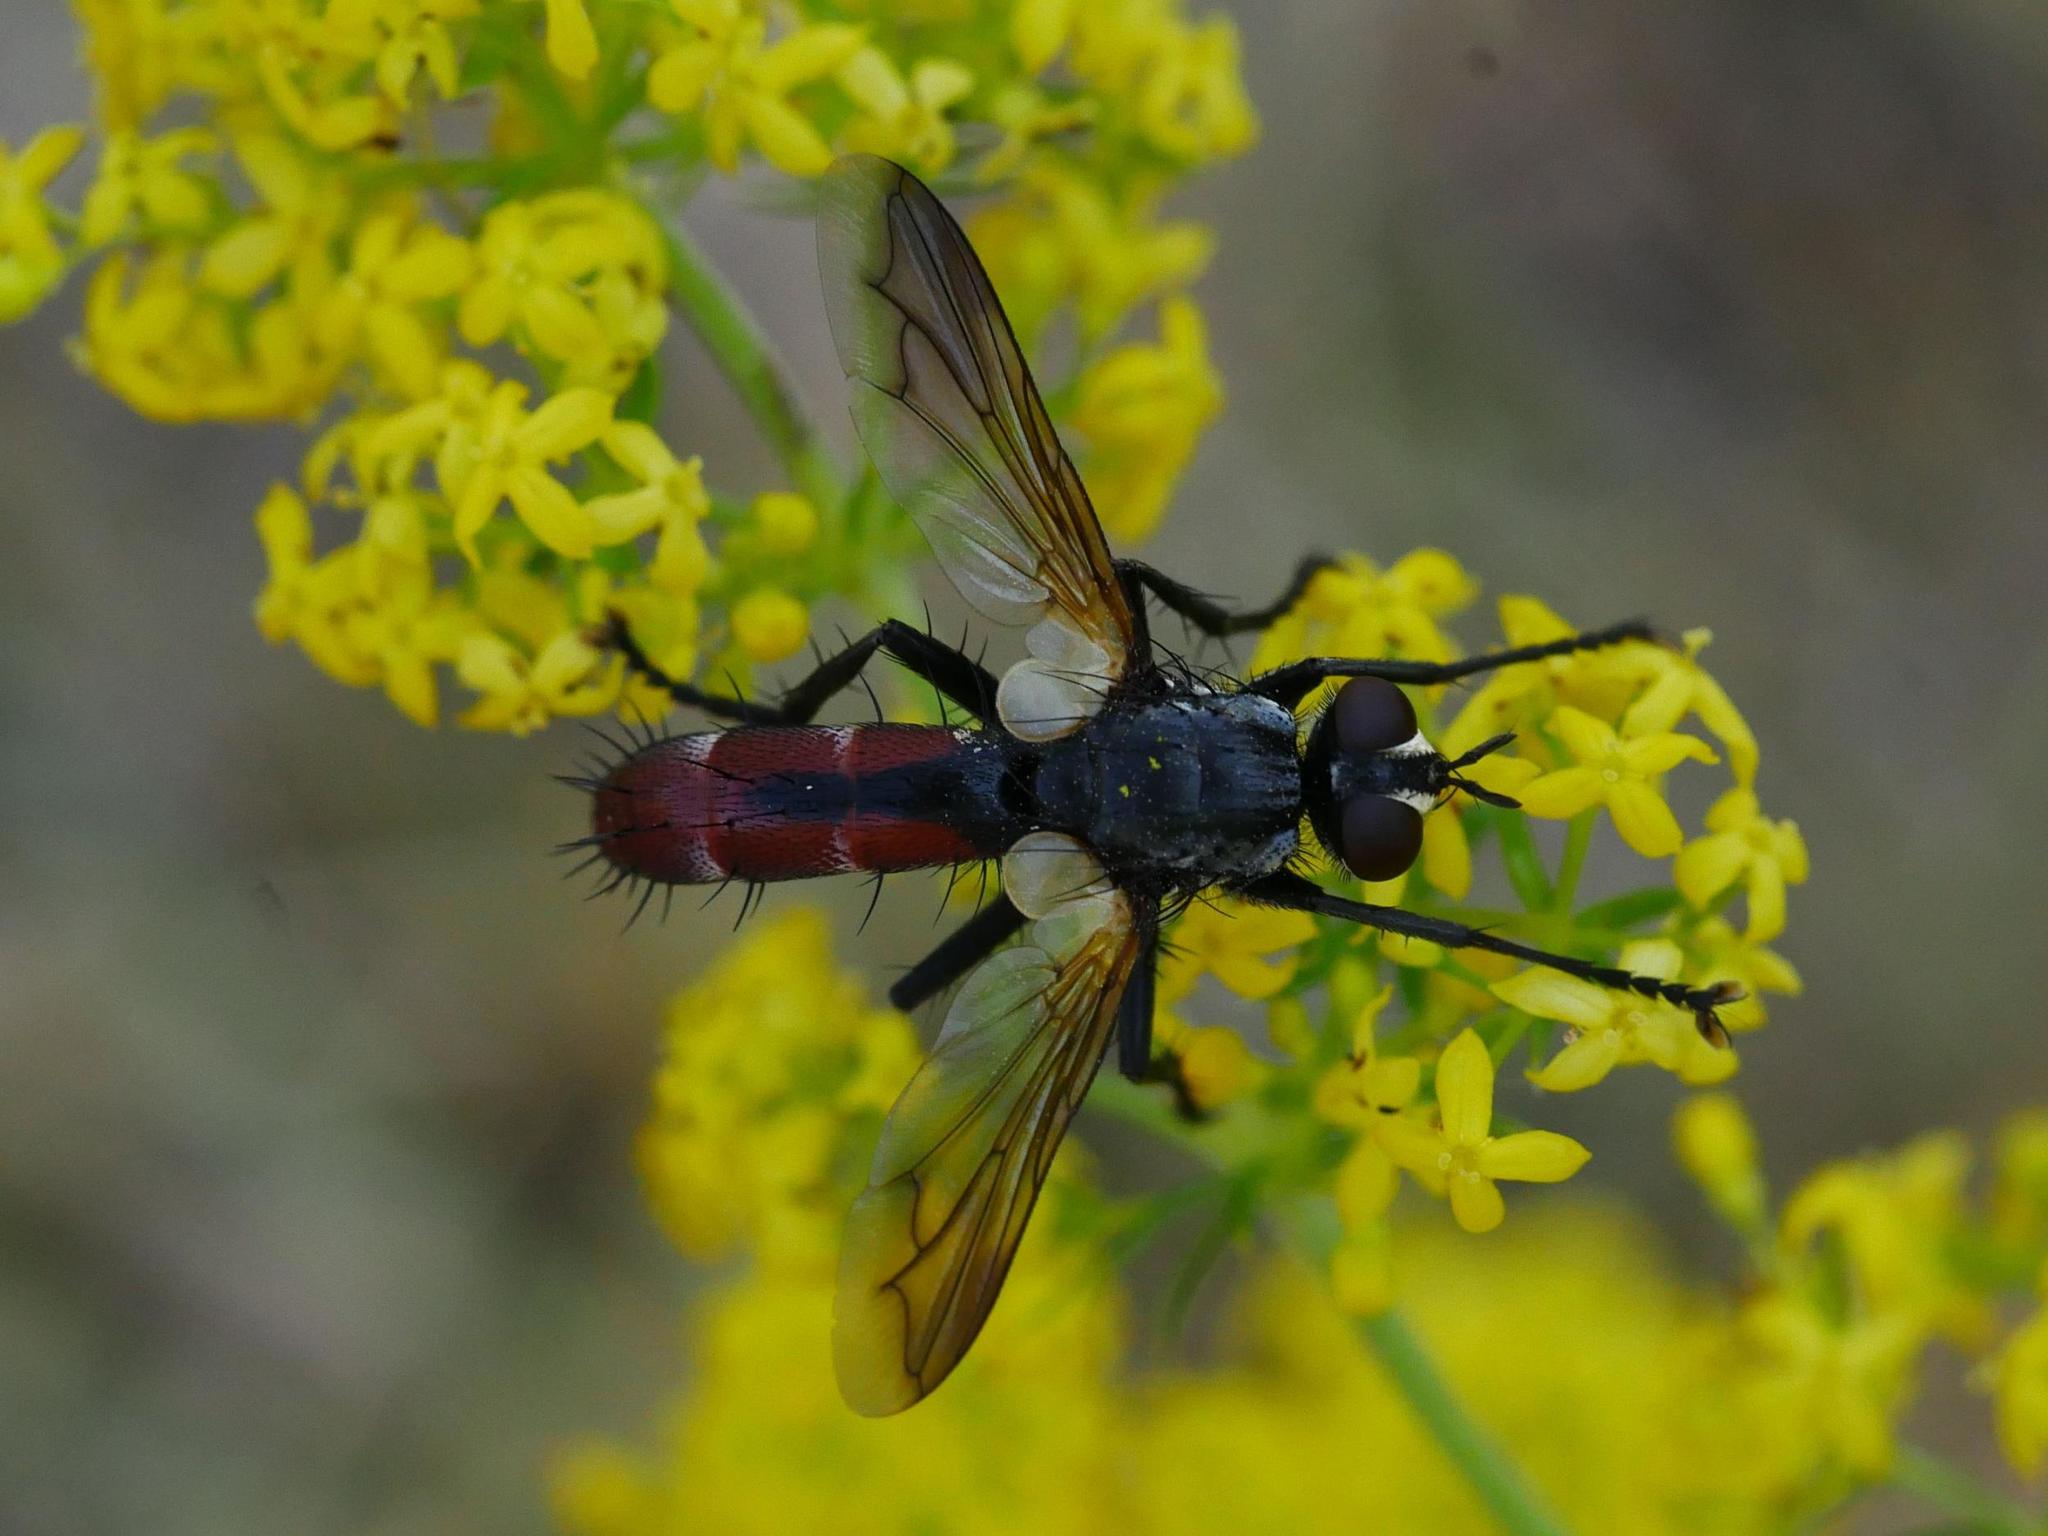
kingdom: Animalia
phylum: Arthropoda
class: Insecta
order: Diptera
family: Tachinidae
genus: Cylindromyia
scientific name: Cylindromyia bicolor
